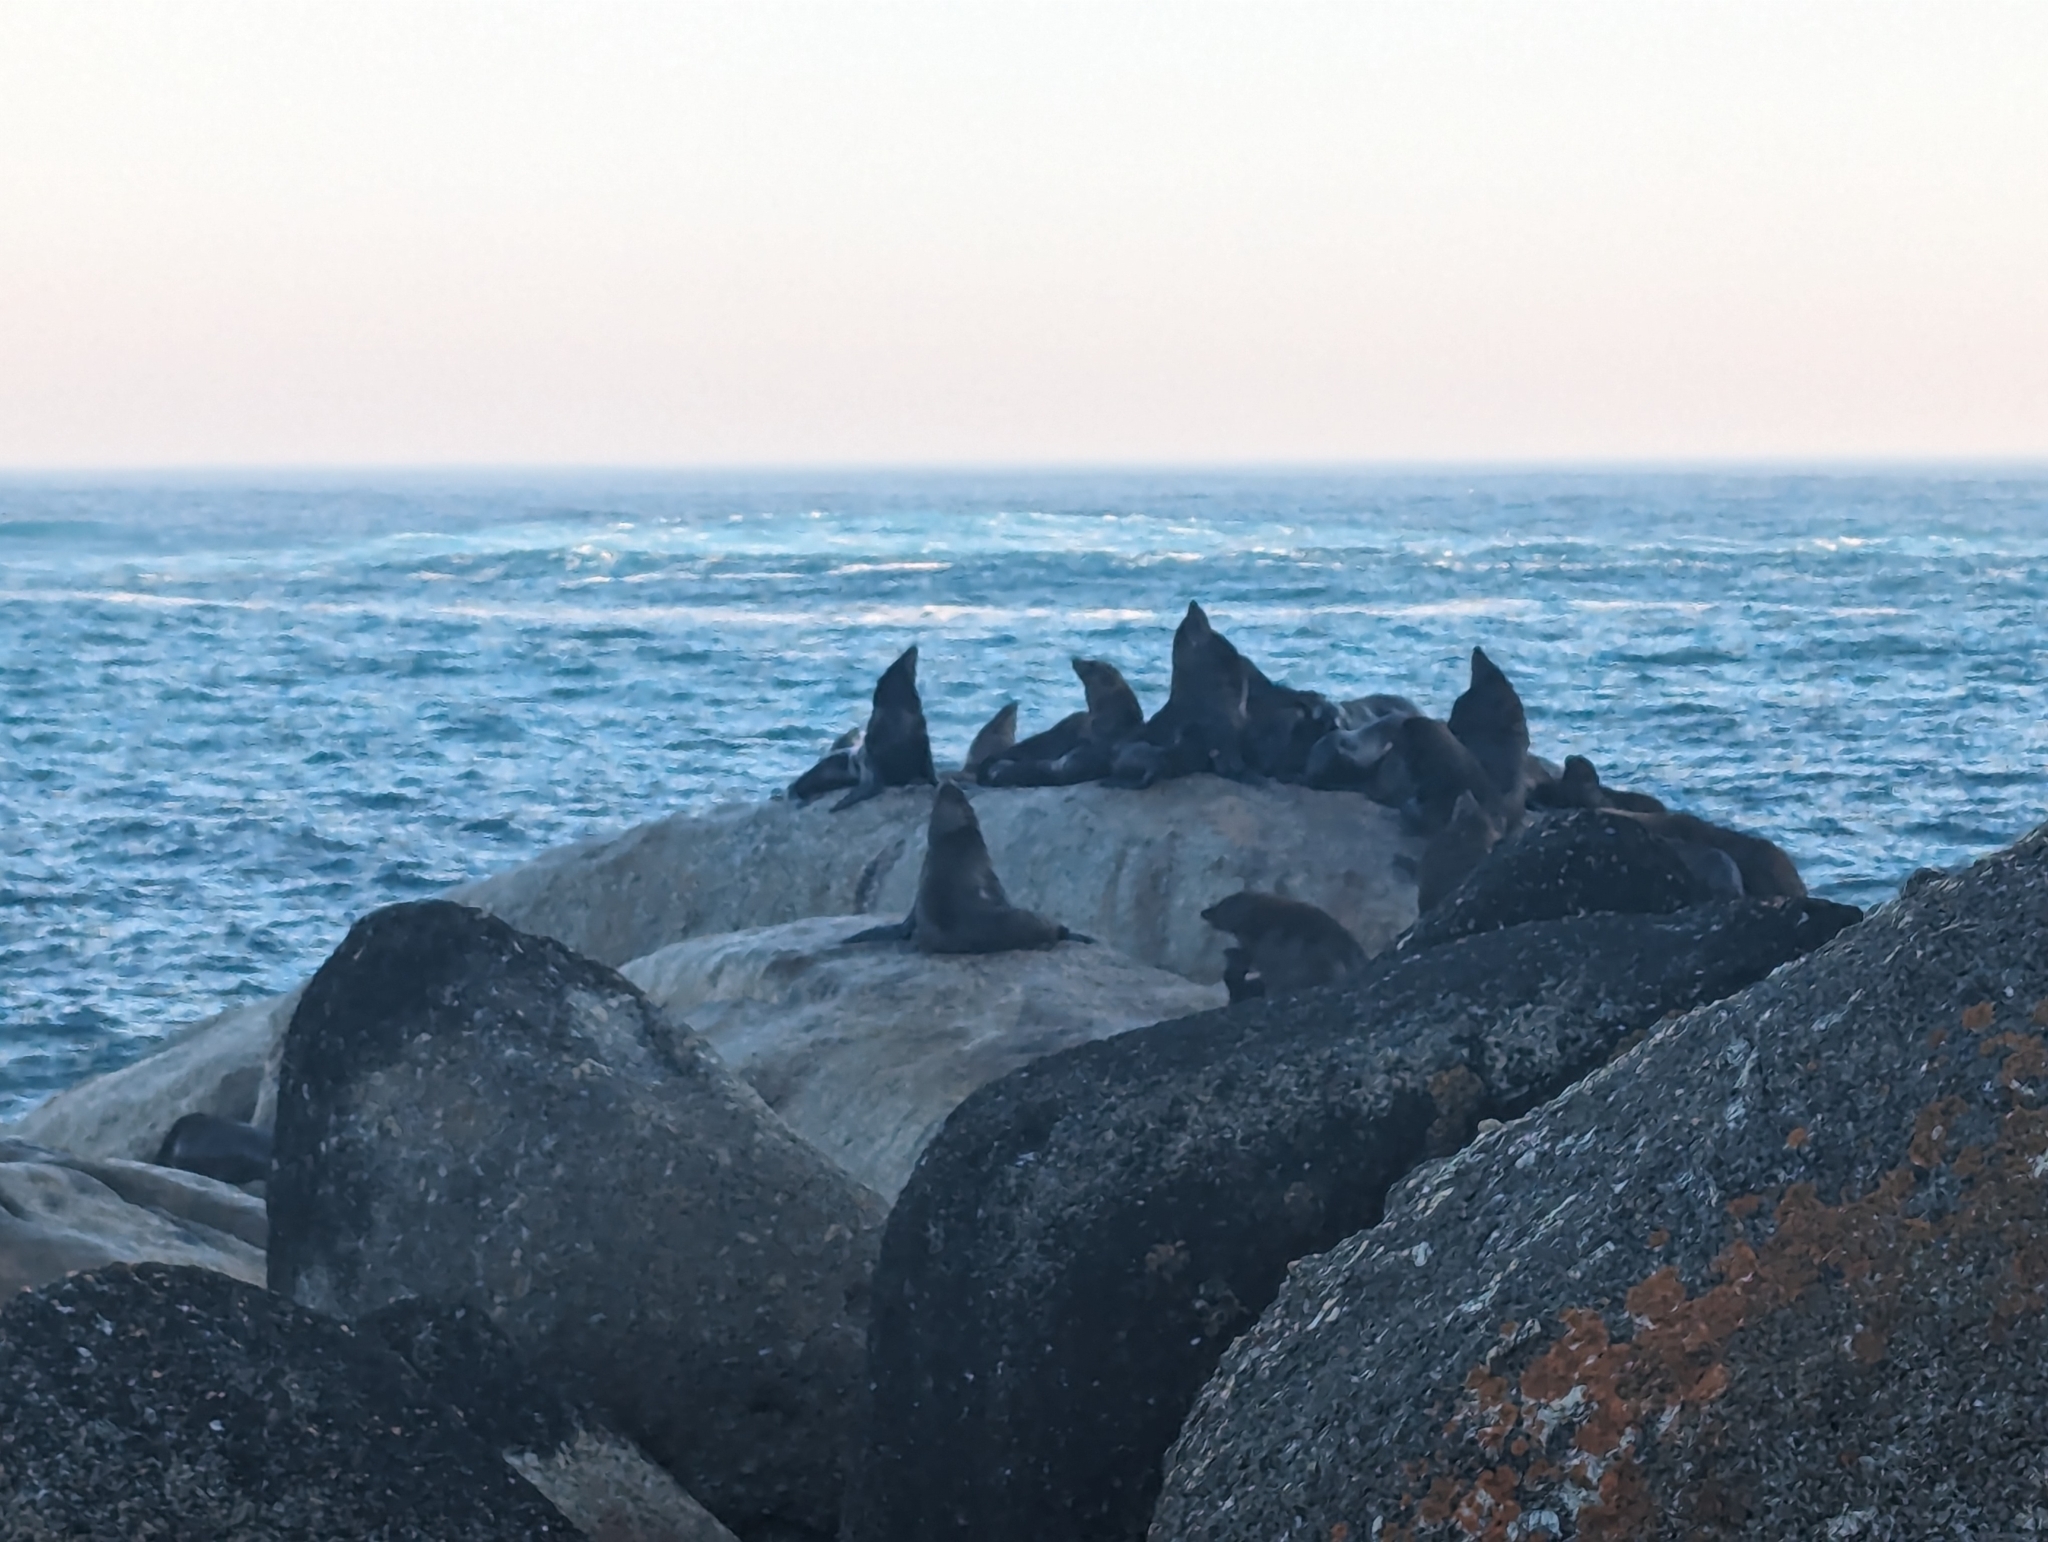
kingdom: Animalia
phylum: Chordata
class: Mammalia
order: Carnivora
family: Otariidae
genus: Arctocephalus
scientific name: Arctocephalus pusillus
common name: Brown fur seal
